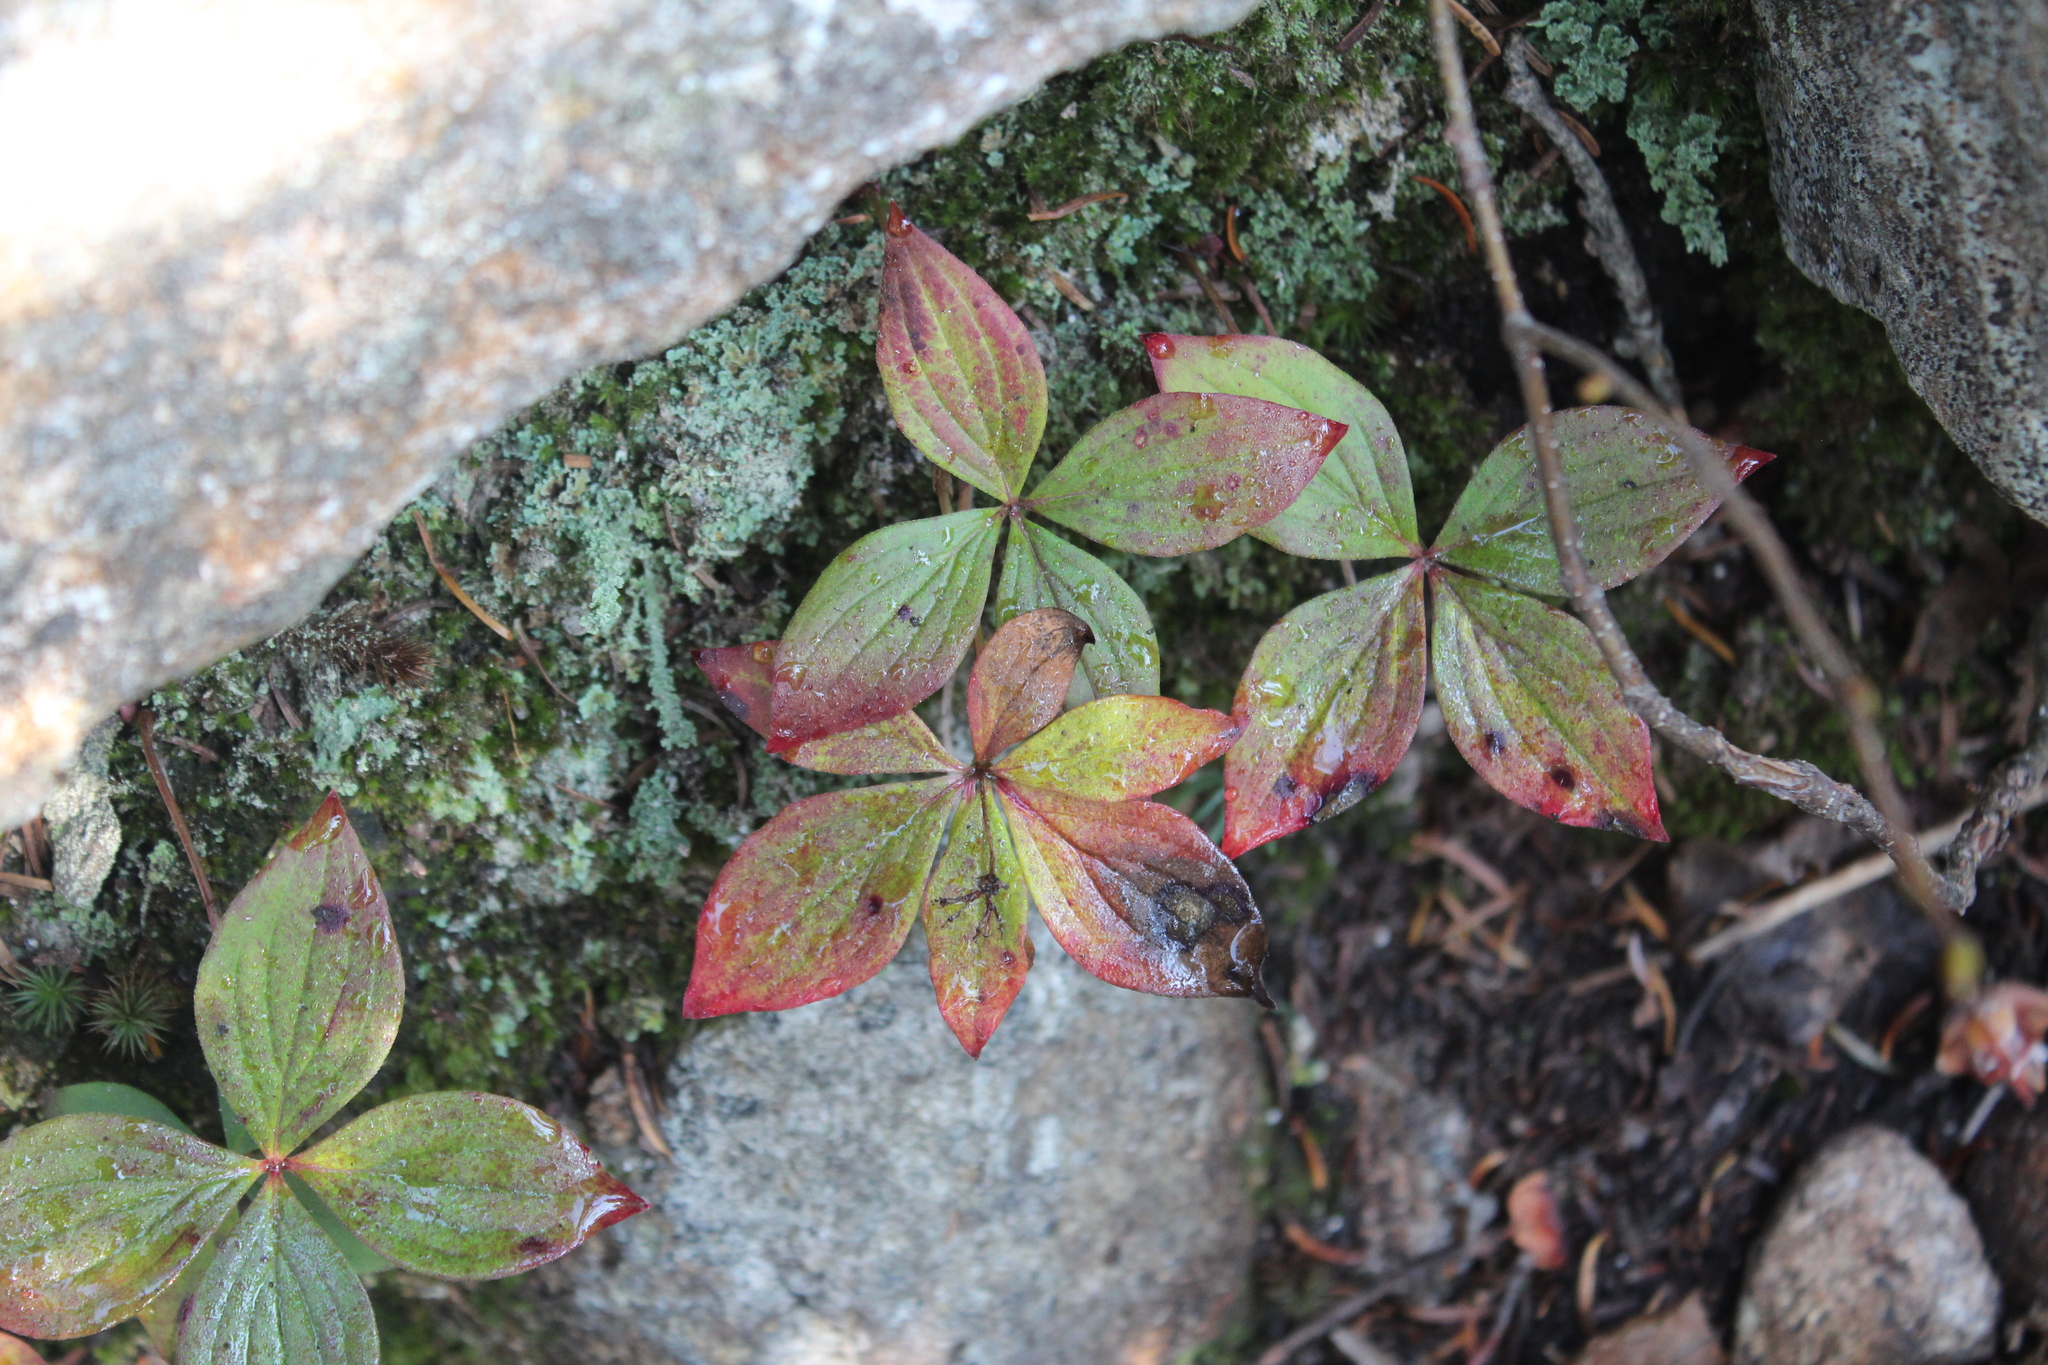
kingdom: Plantae
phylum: Tracheophyta
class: Magnoliopsida
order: Cornales
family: Cornaceae
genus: Cornus
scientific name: Cornus canadensis
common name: Creeping dogwood
